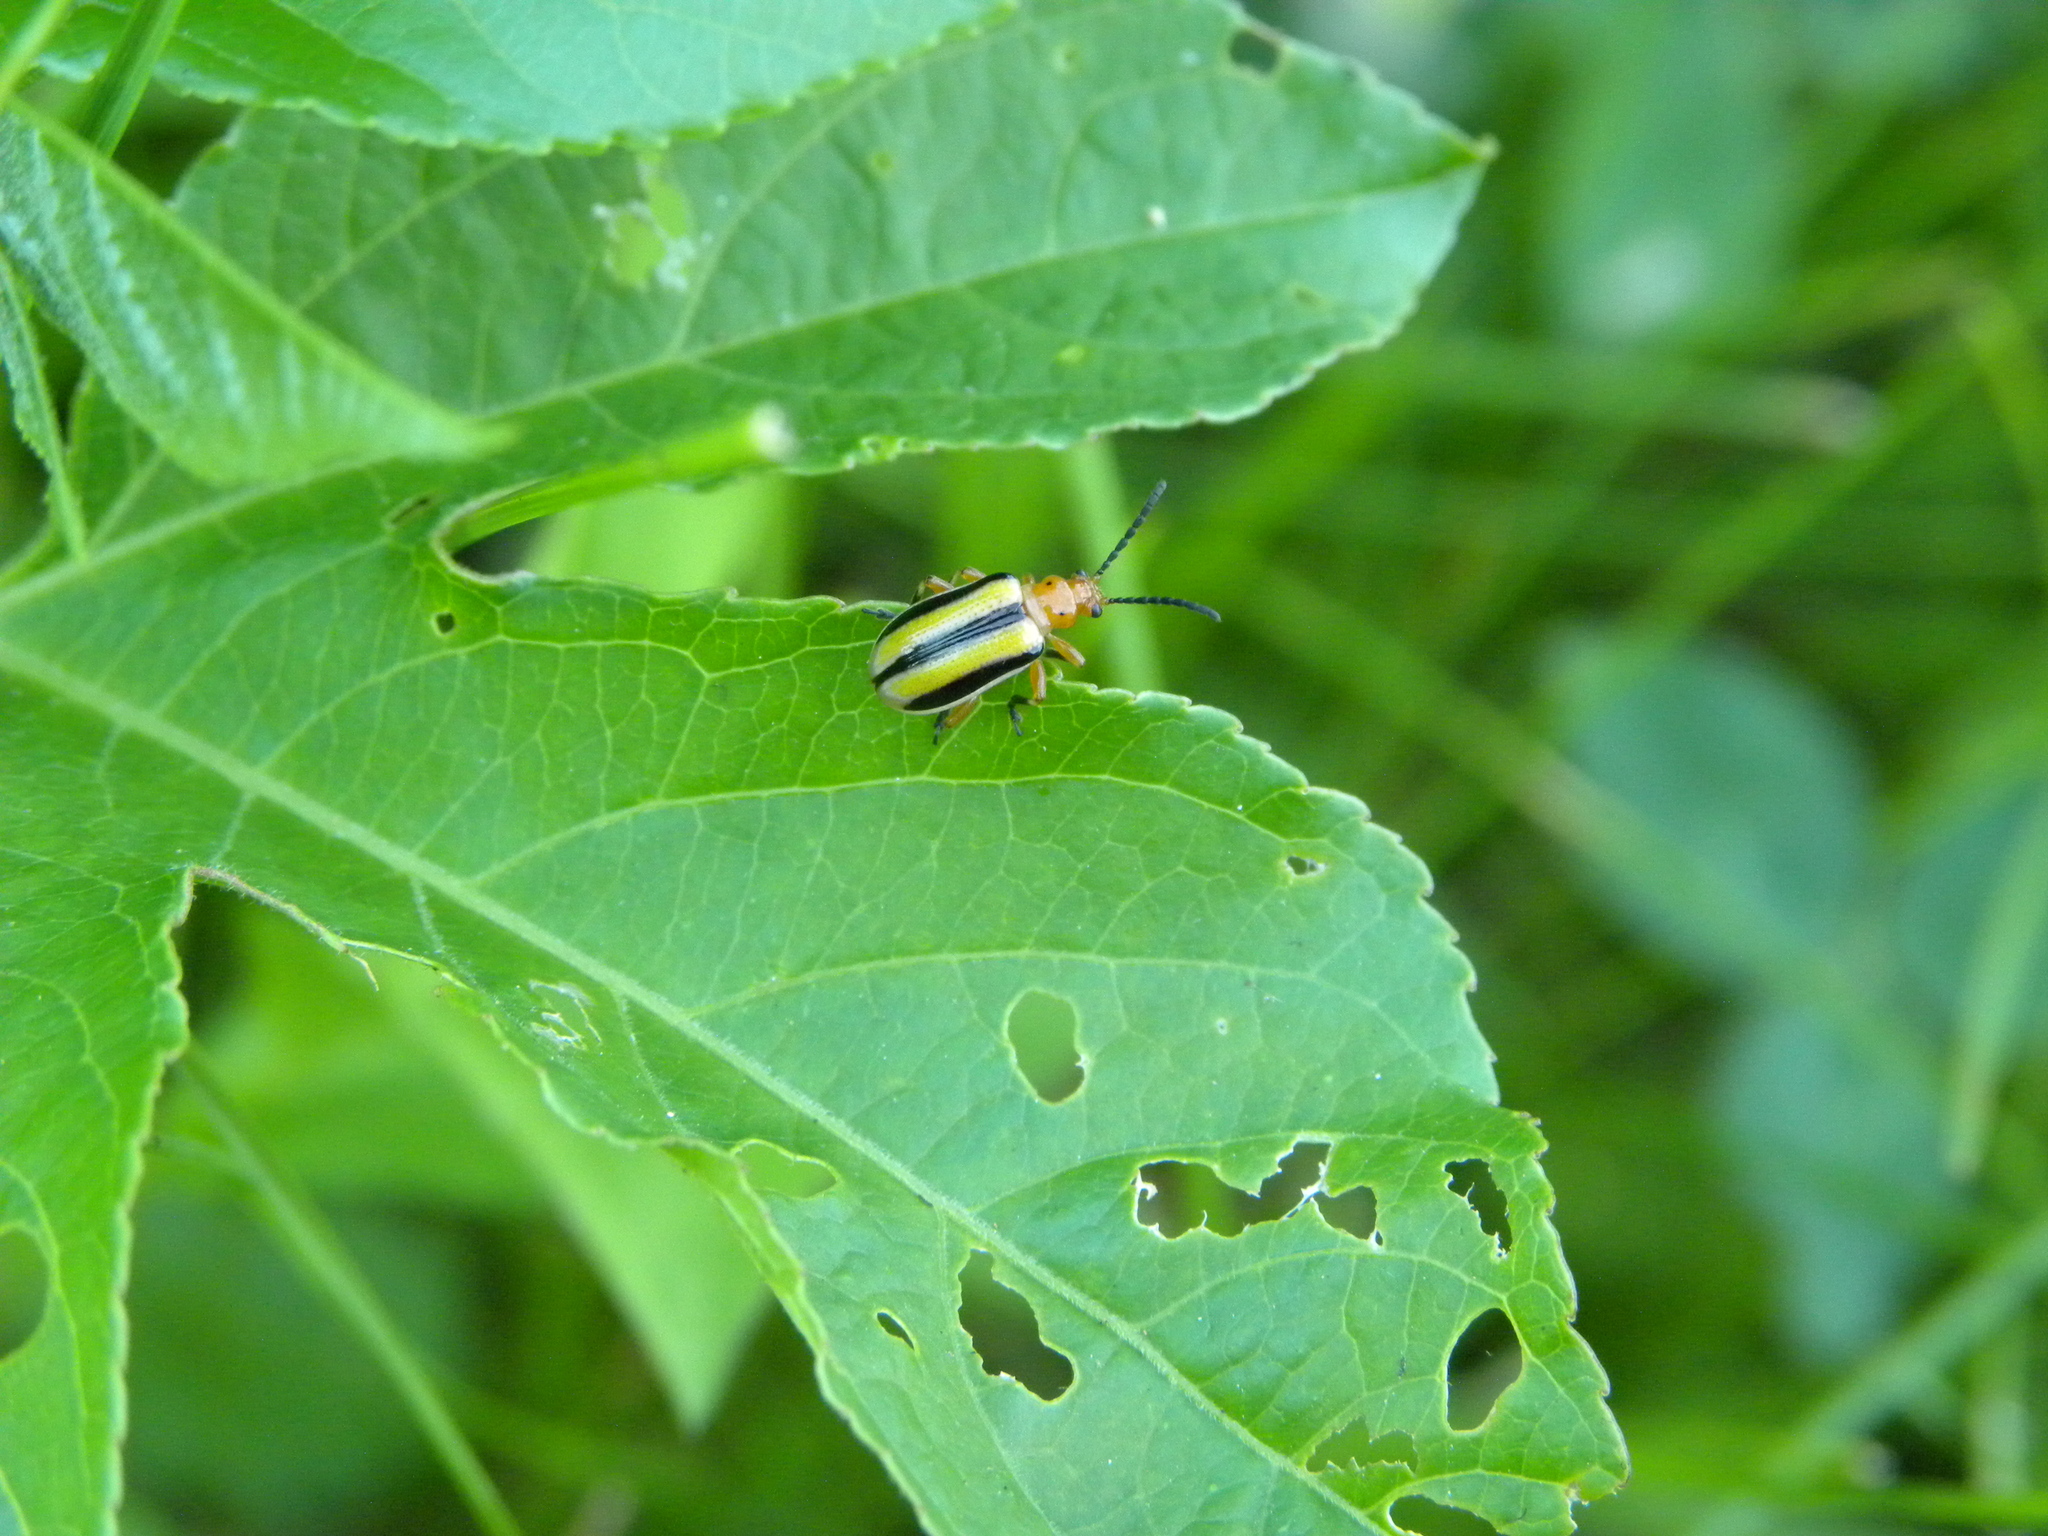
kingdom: Animalia
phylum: Arthropoda
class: Insecta
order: Coleoptera
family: Chrysomelidae
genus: Lema
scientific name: Lema daturaphila
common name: Leaf beetle
